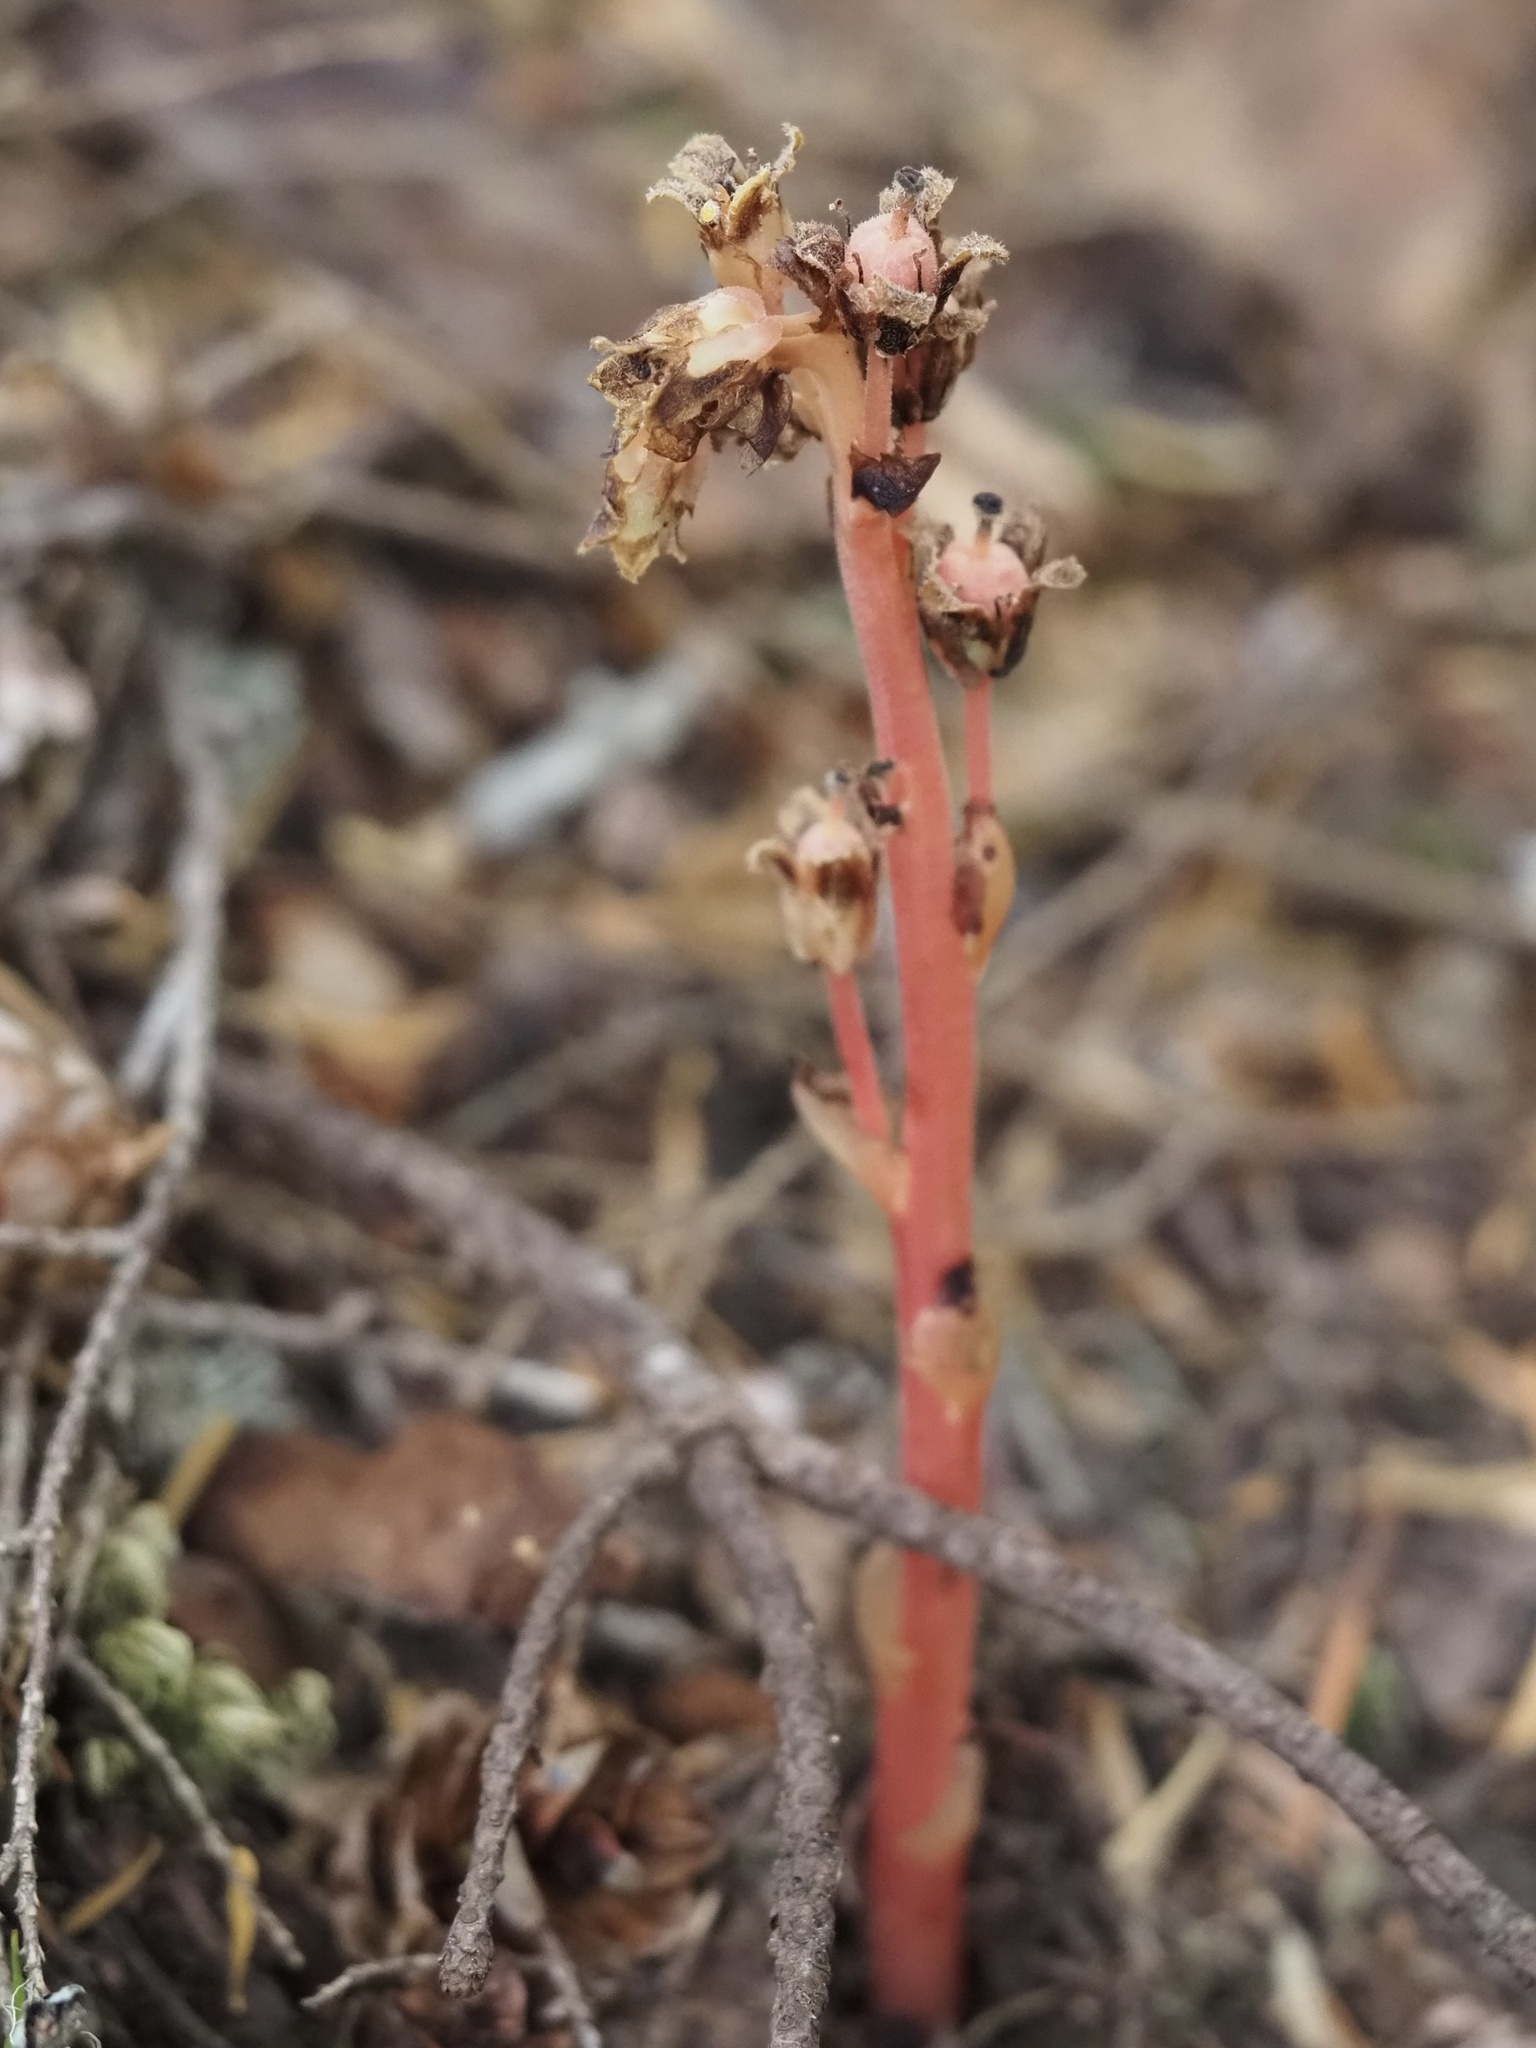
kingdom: Plantae
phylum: Tracheophyta
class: Magnoliopsida
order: Ericales
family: Ericaceae
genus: Hypopitys
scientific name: Hypopitys monotropa
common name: Yellow bird's-nest
